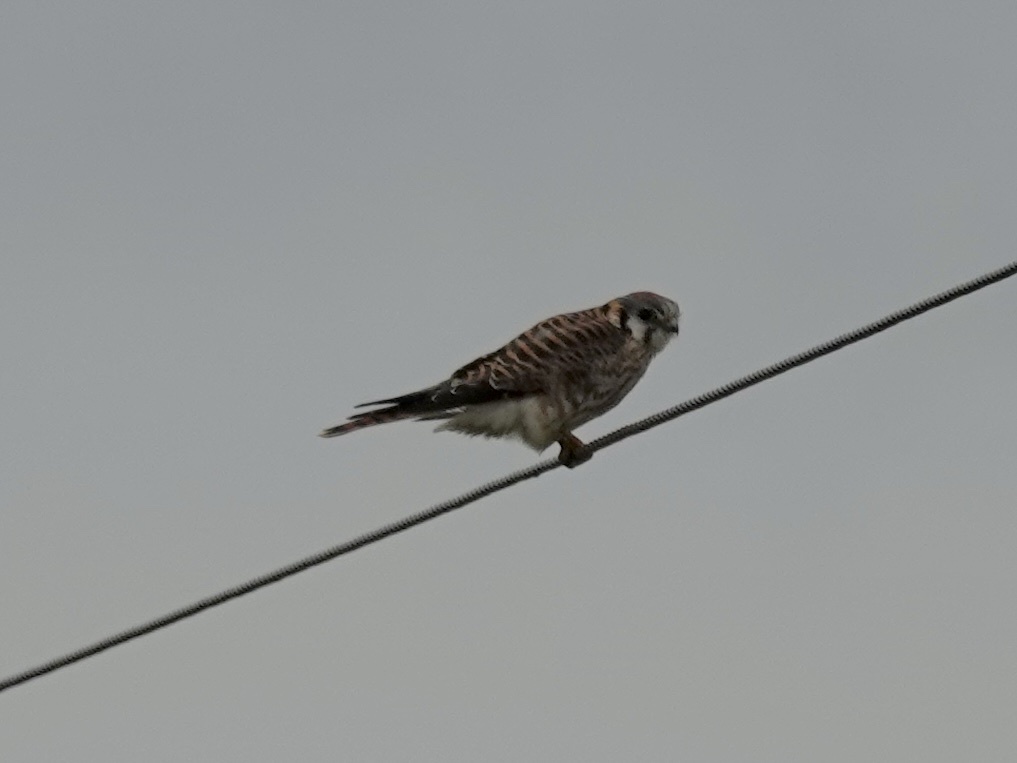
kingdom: Animalia
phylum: Chordata
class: Aves
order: Falconiformes
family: Falconidae
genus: Falco
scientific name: Falco sparverius
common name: American kestrel
